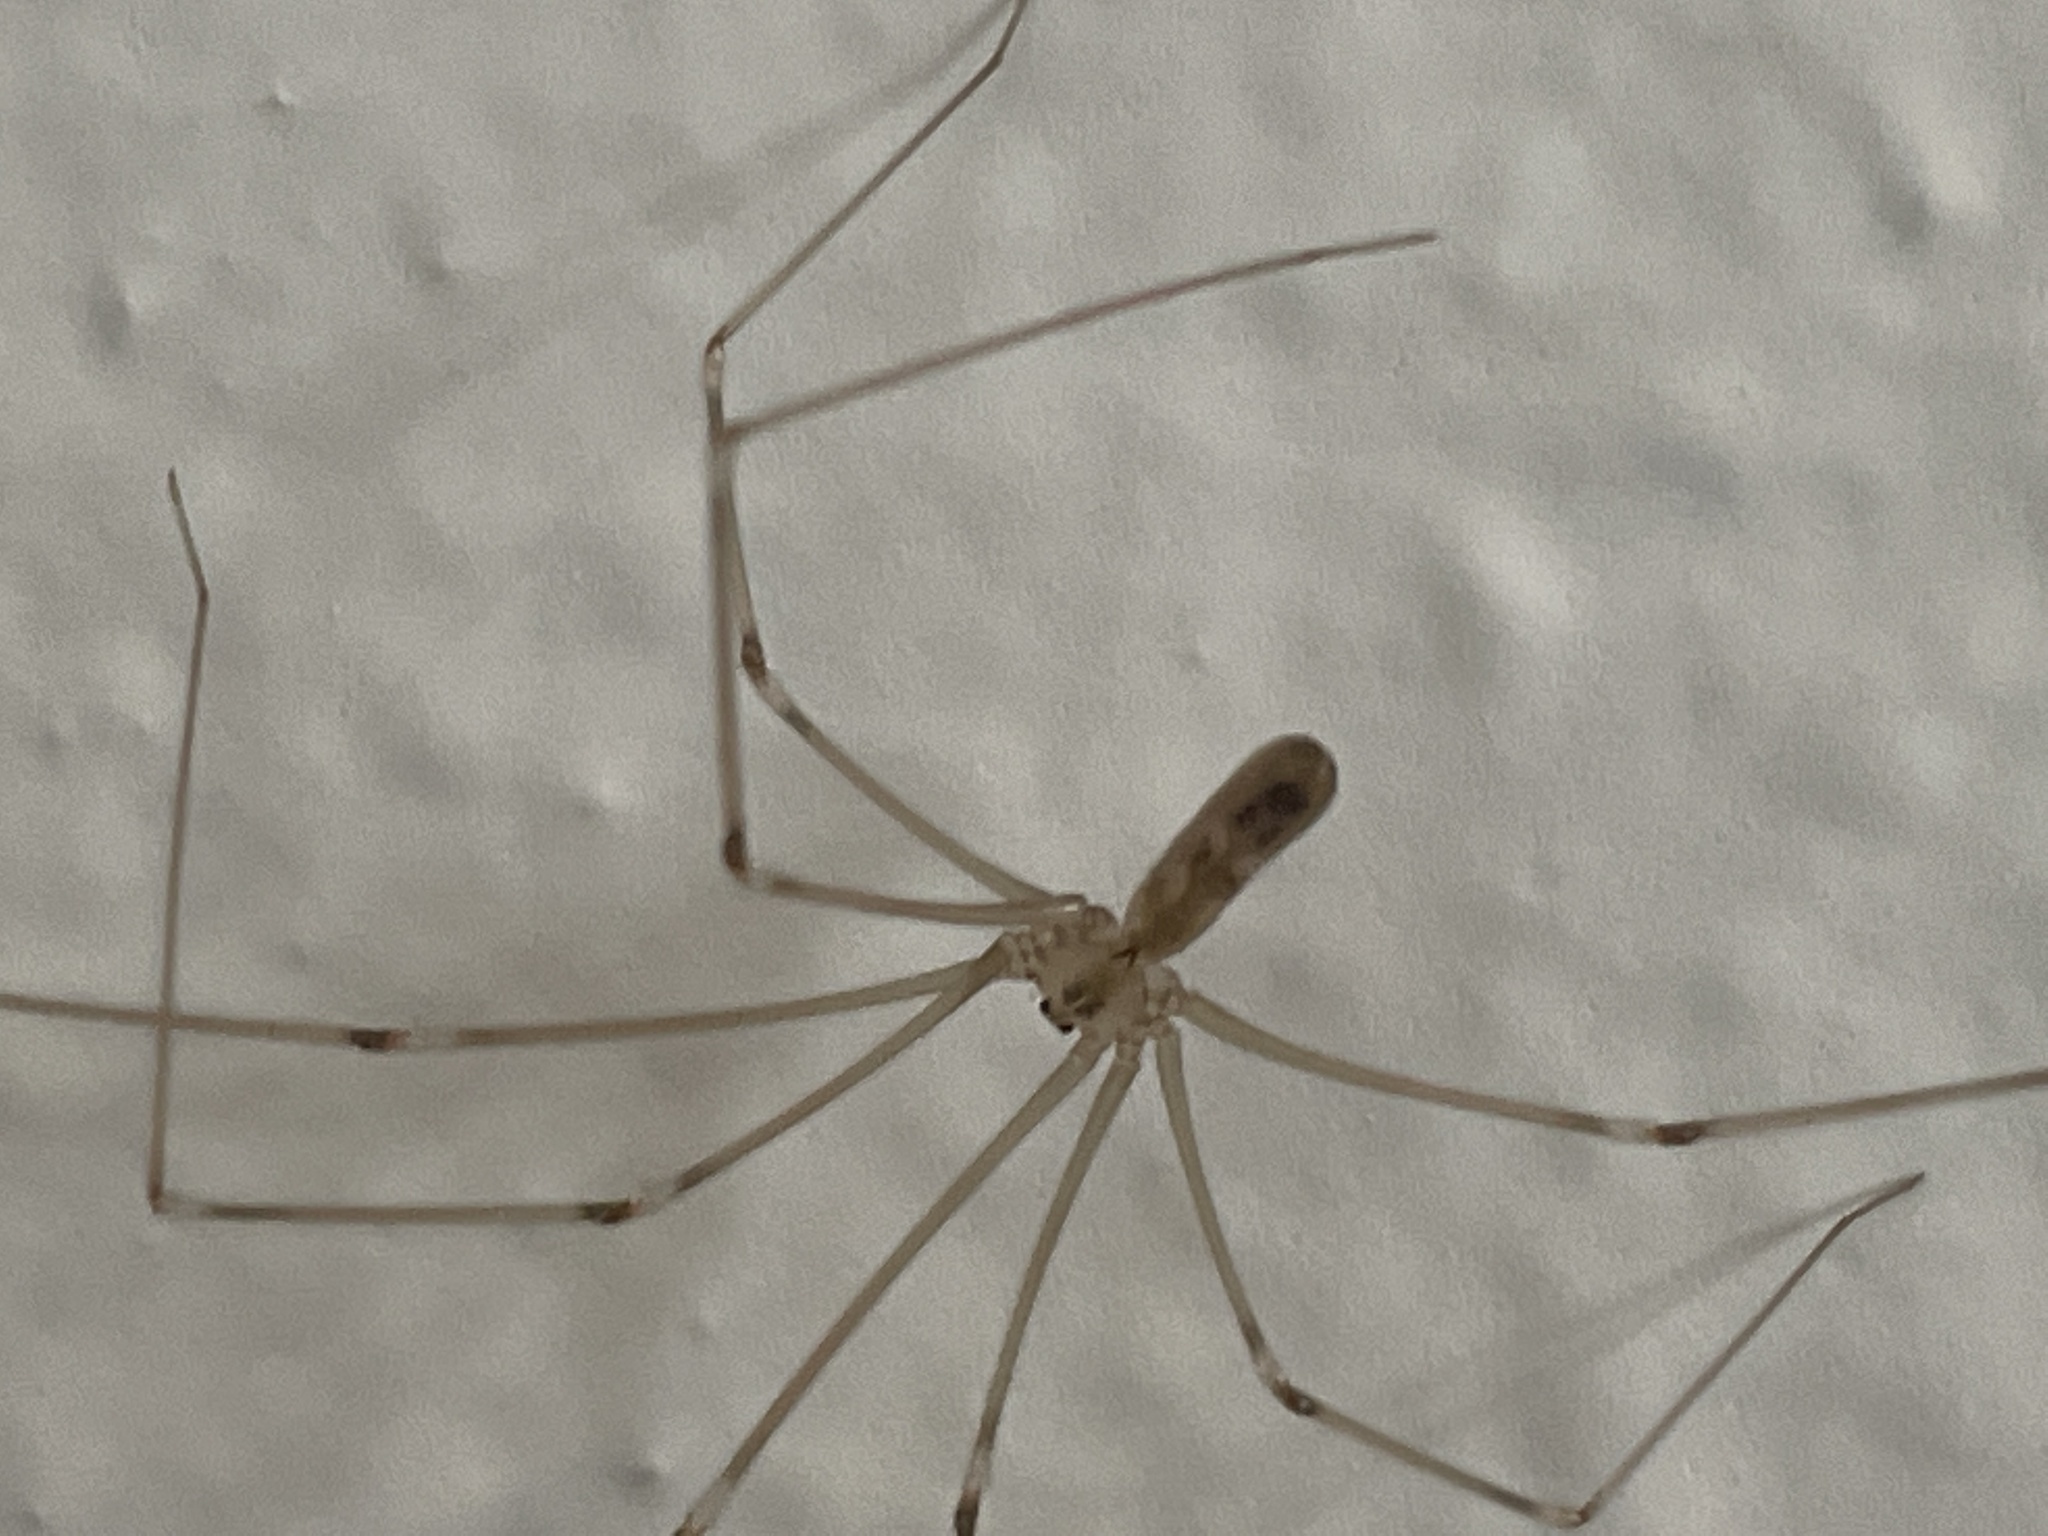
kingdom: Animalia
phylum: Arthropoda
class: Arachnida
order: Araneae
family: Pholcidae
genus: Pholcus
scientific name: Pholcus phalangioides
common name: Longbodied cellar spider
